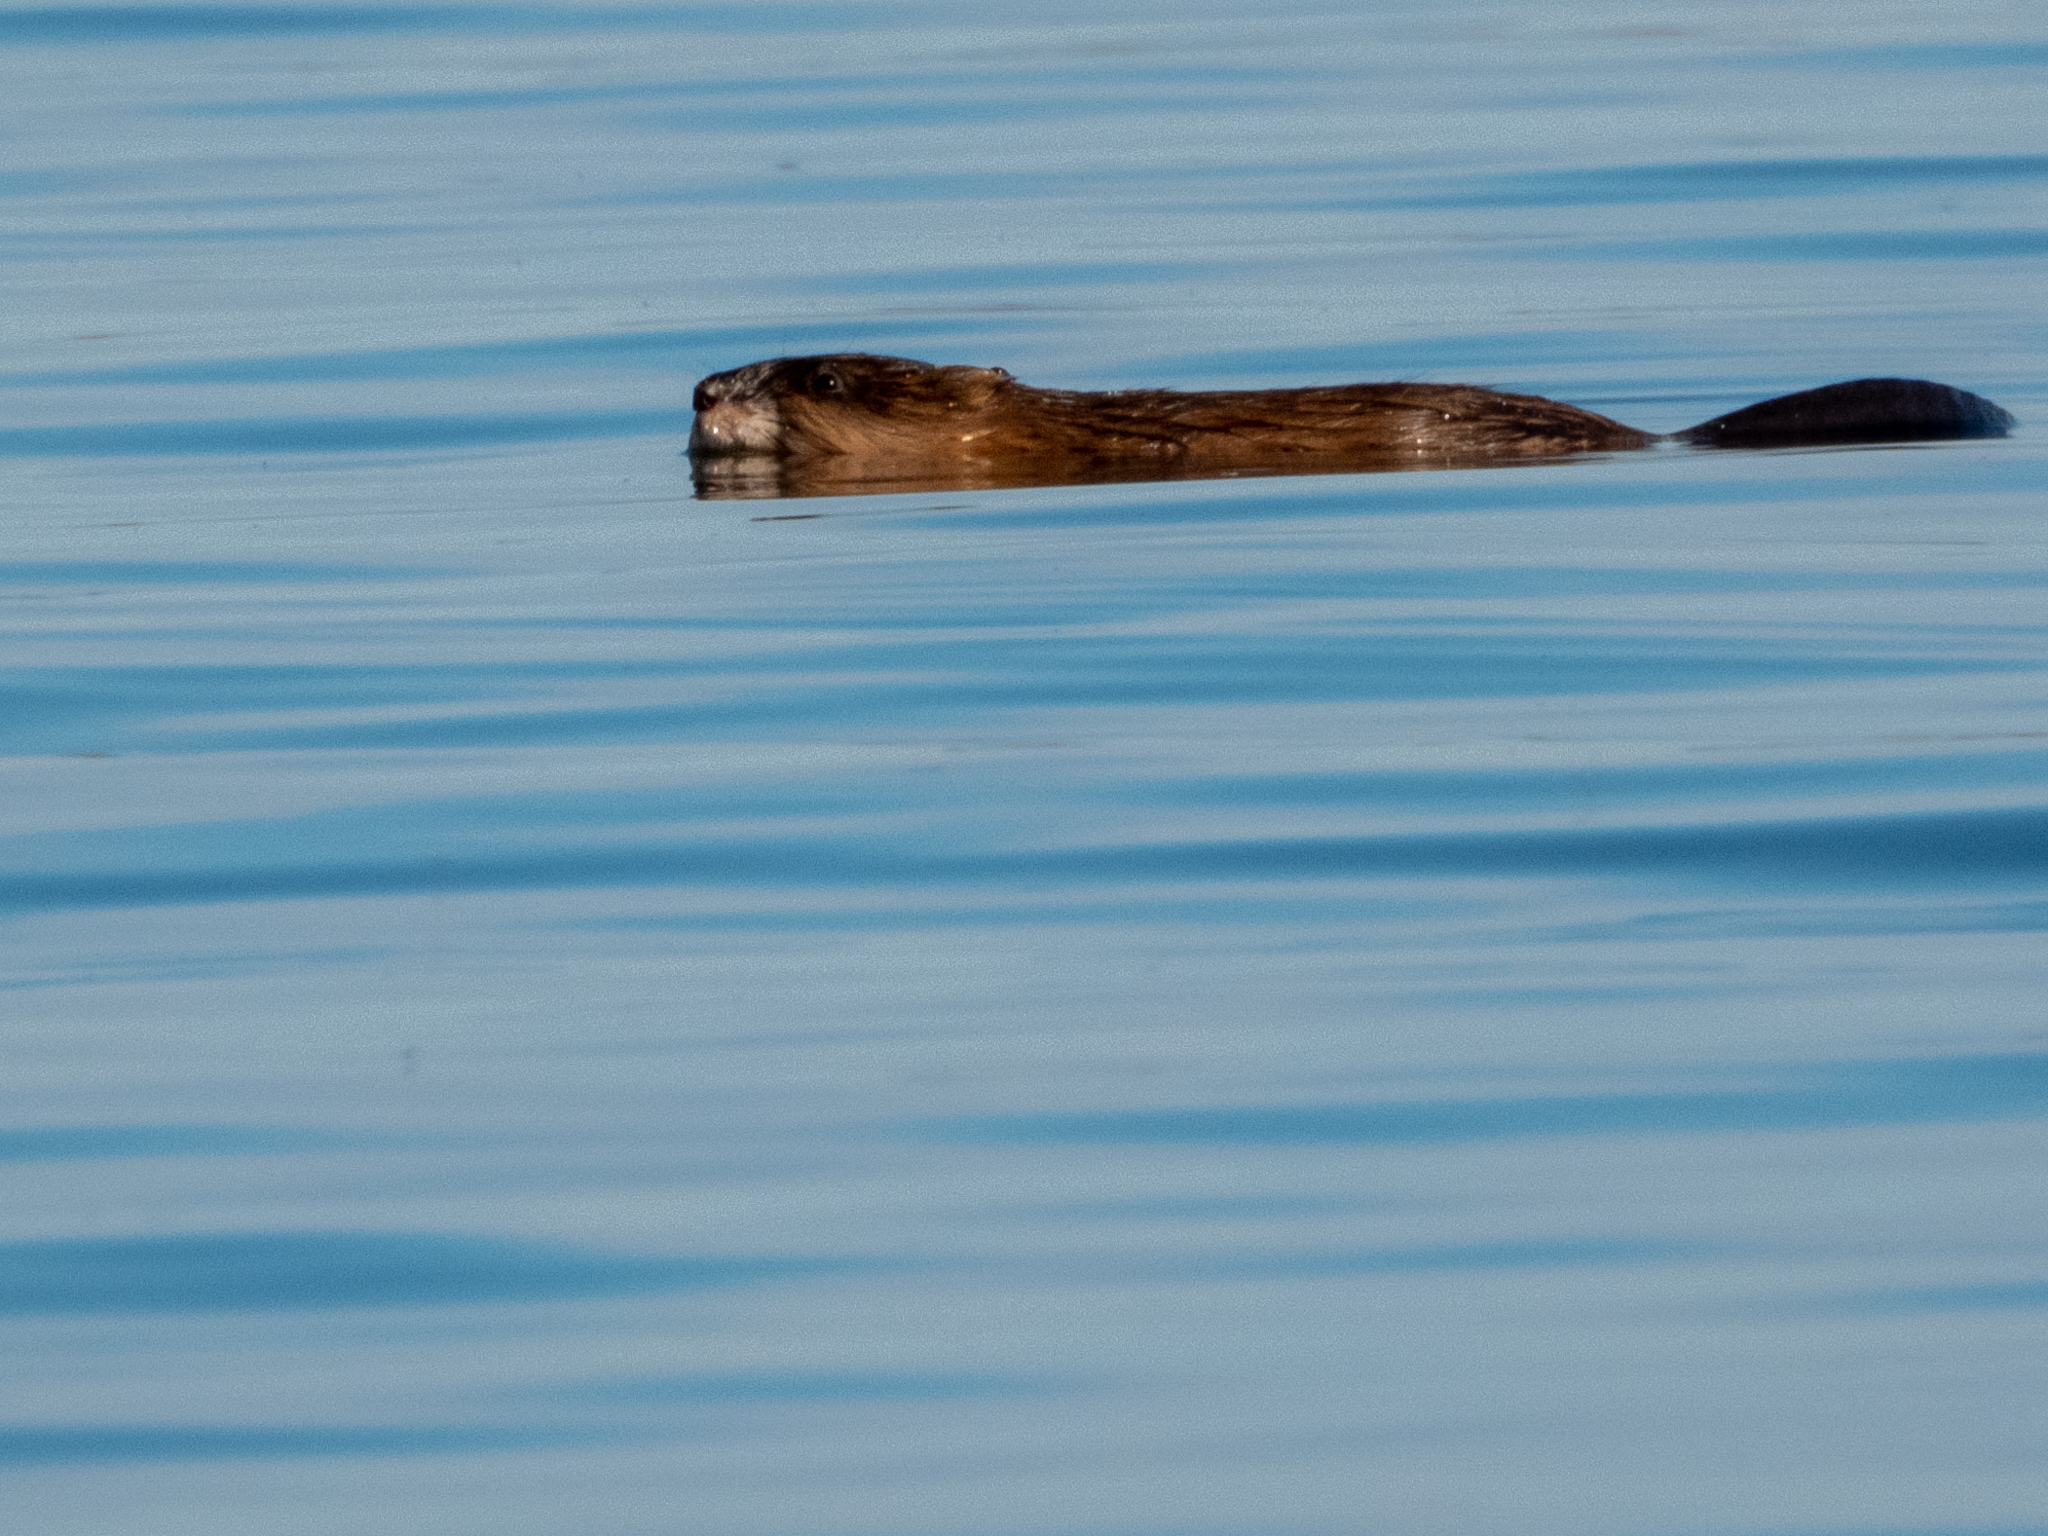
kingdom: Animalia
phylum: Chordata
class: Mammalia
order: Rodentia
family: Cricetidae
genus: Ondatra
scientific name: Ondatra zibethicus
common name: Muskrat
